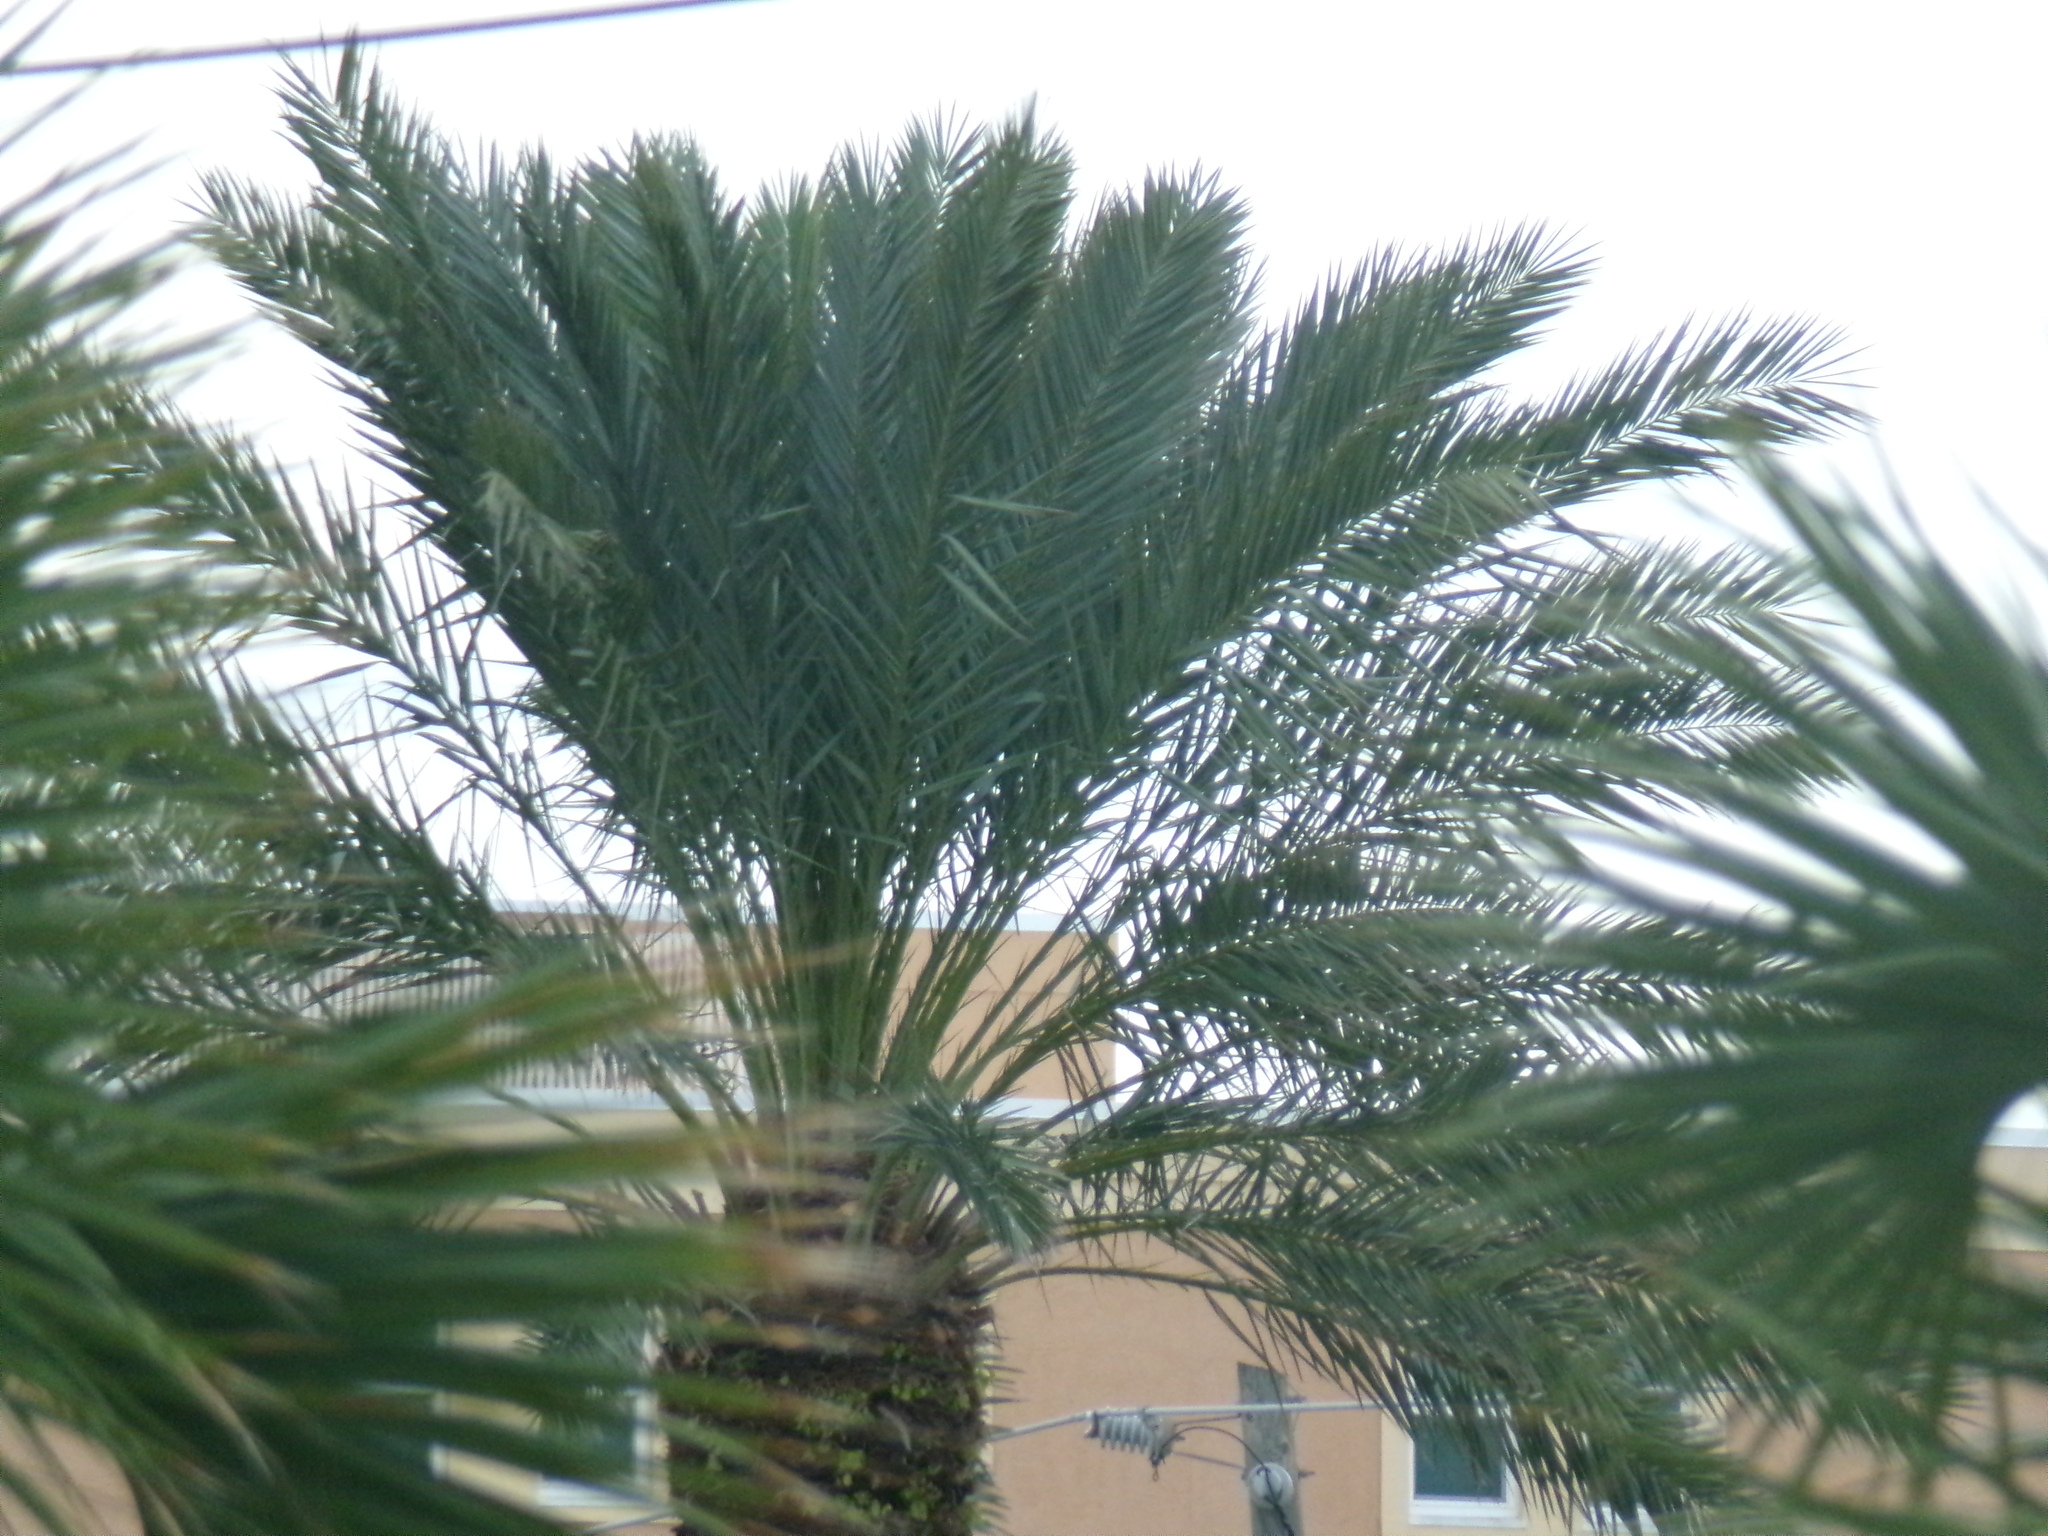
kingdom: Plantae
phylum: Tracheophyta
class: Liliopsida
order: Arecales
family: Arecaceae
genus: Phoenix
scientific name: Phoenix sylvestris
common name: Wild date palm
